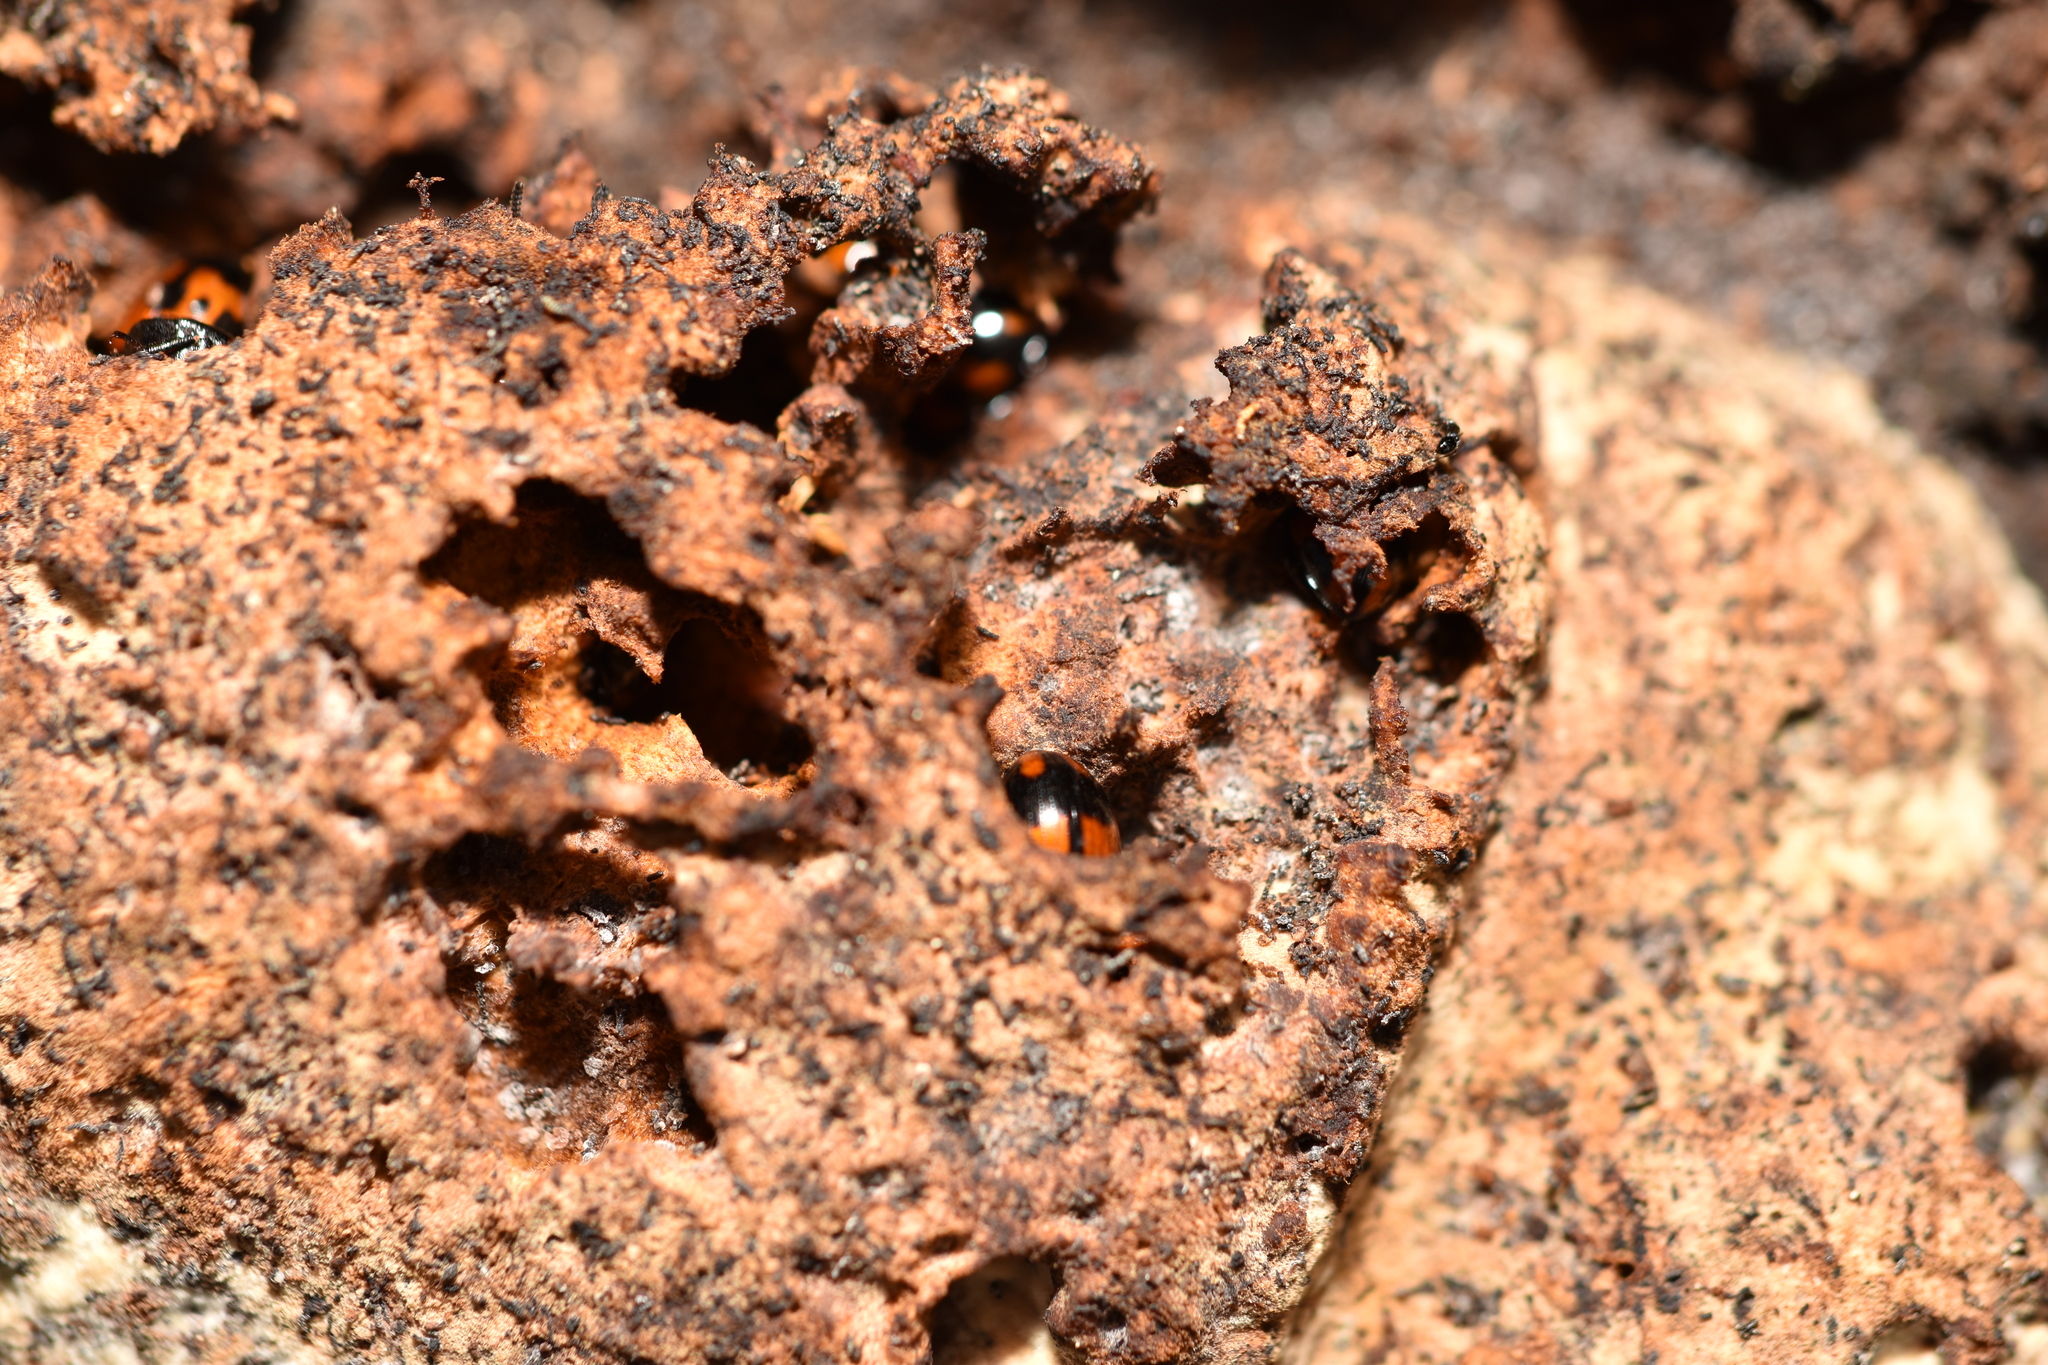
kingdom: Animalia
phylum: Arthropoda
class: Insecta
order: Coleoptera
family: Tenebrionidae
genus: Diaperis
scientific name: Diaperis nigronotata
